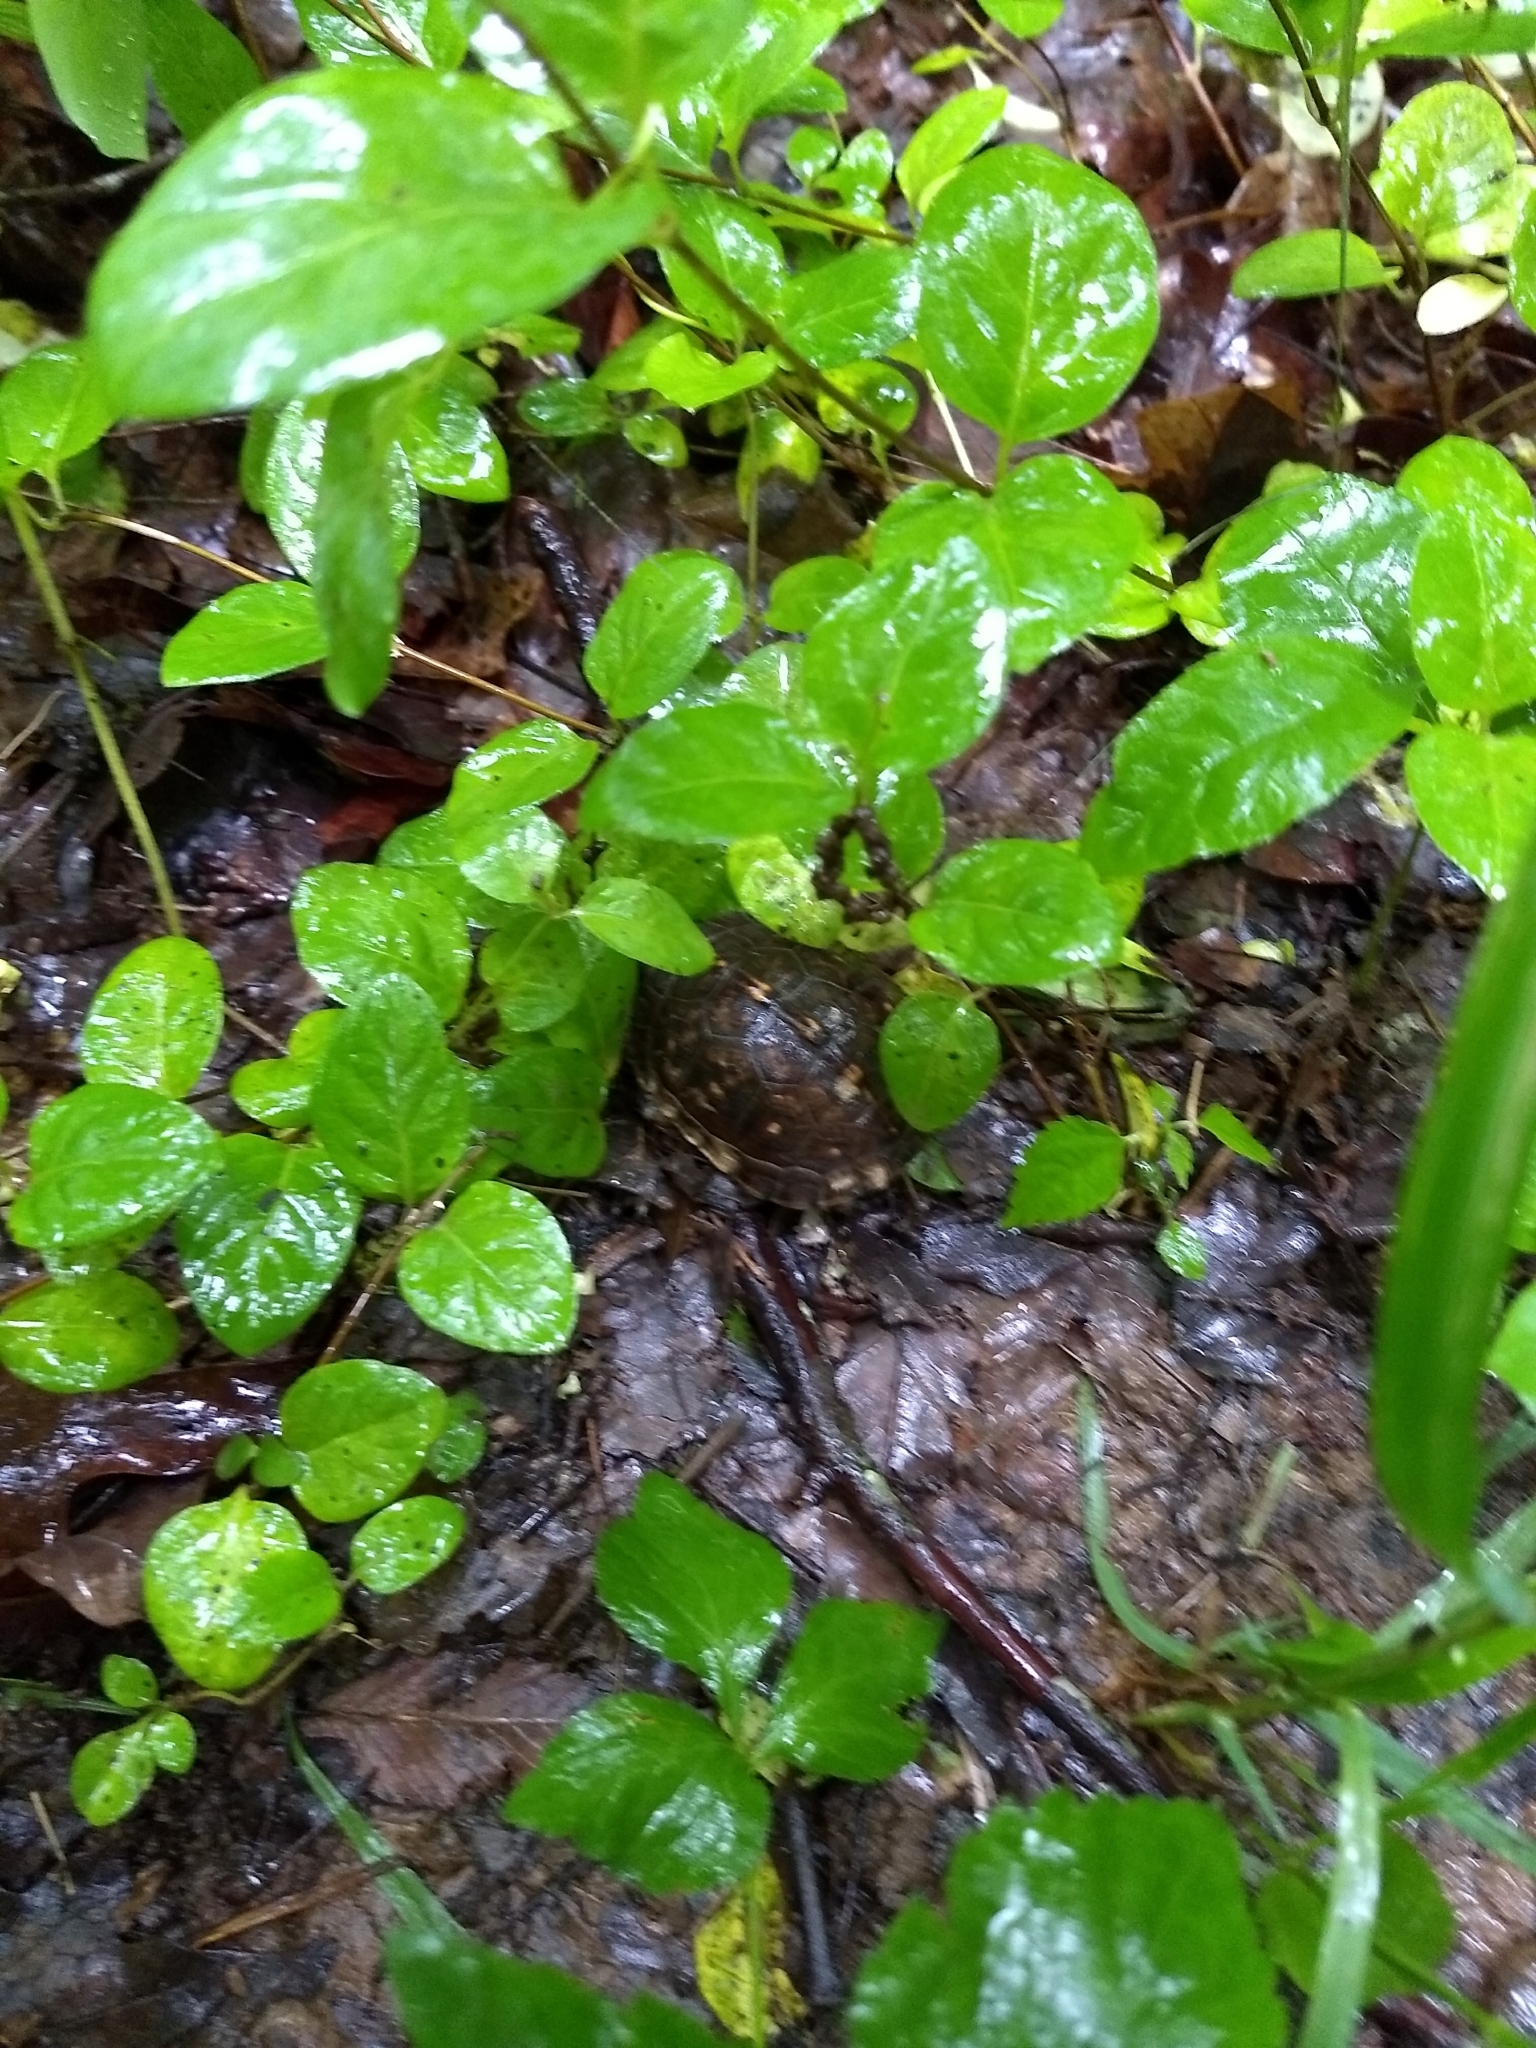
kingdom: Animalia
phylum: Chordata
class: Testudines
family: Emydidae
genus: Terrapene
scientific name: Terrapene carolina
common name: Common box turtle
